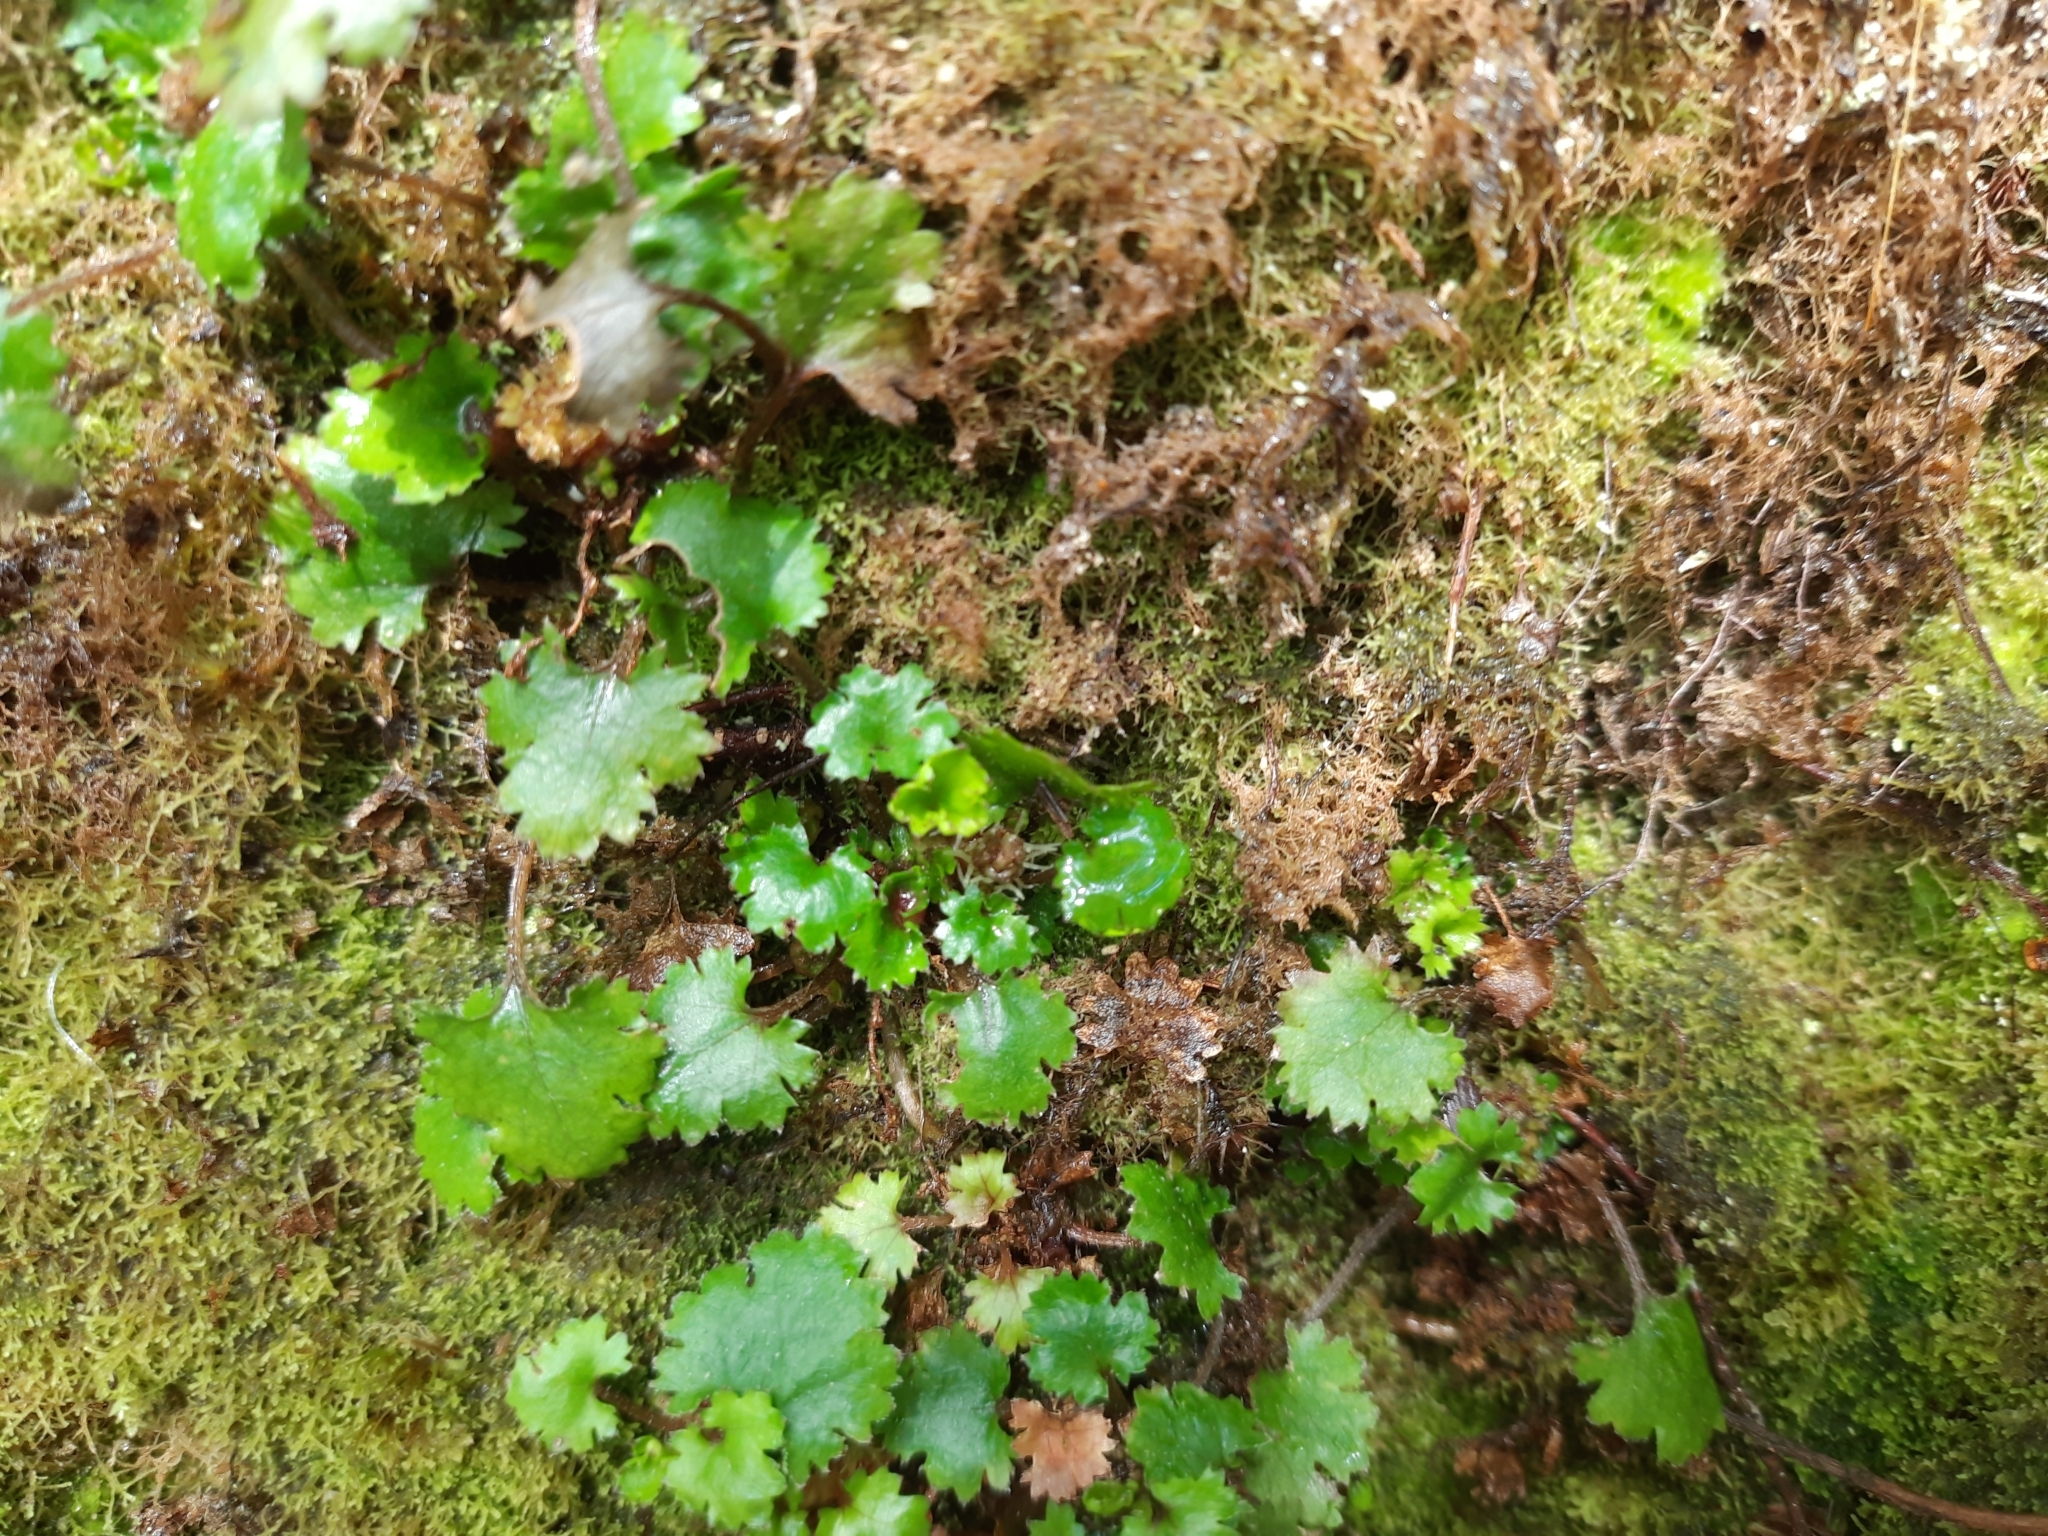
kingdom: Plantae
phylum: Tracheophyta
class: Magnoliopsida
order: Gunnerales
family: Gunneraceae
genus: Gunnera
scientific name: Gunnera monoica
